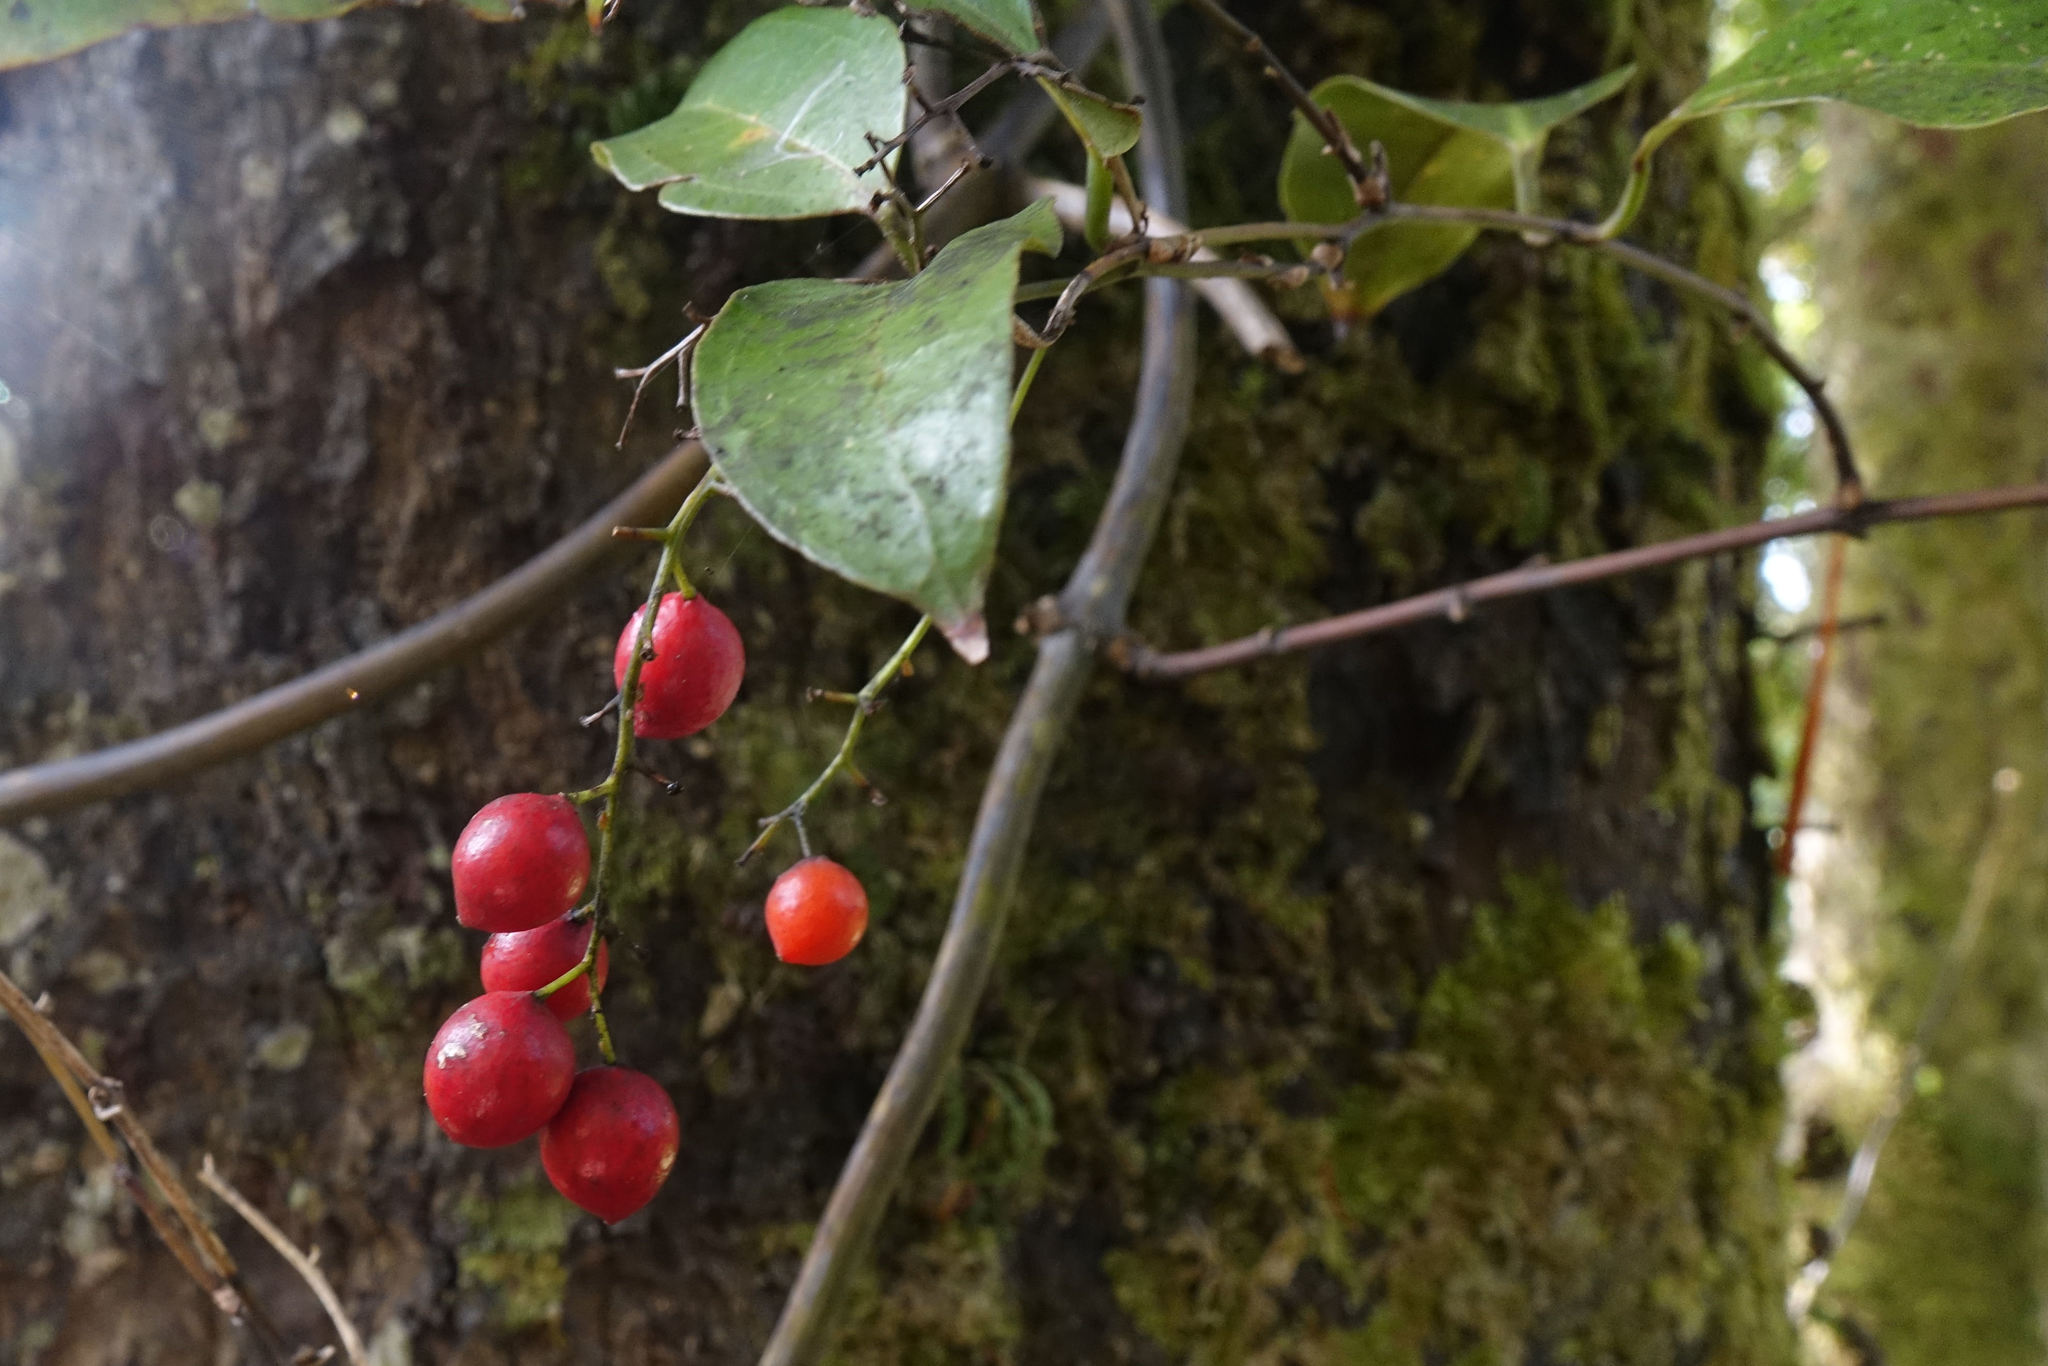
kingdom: Plantae
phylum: Tracheophyta
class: Liliopsida
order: Liliales
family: Ripogonaceae
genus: Ripogonum
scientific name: Ripogonum scandens
